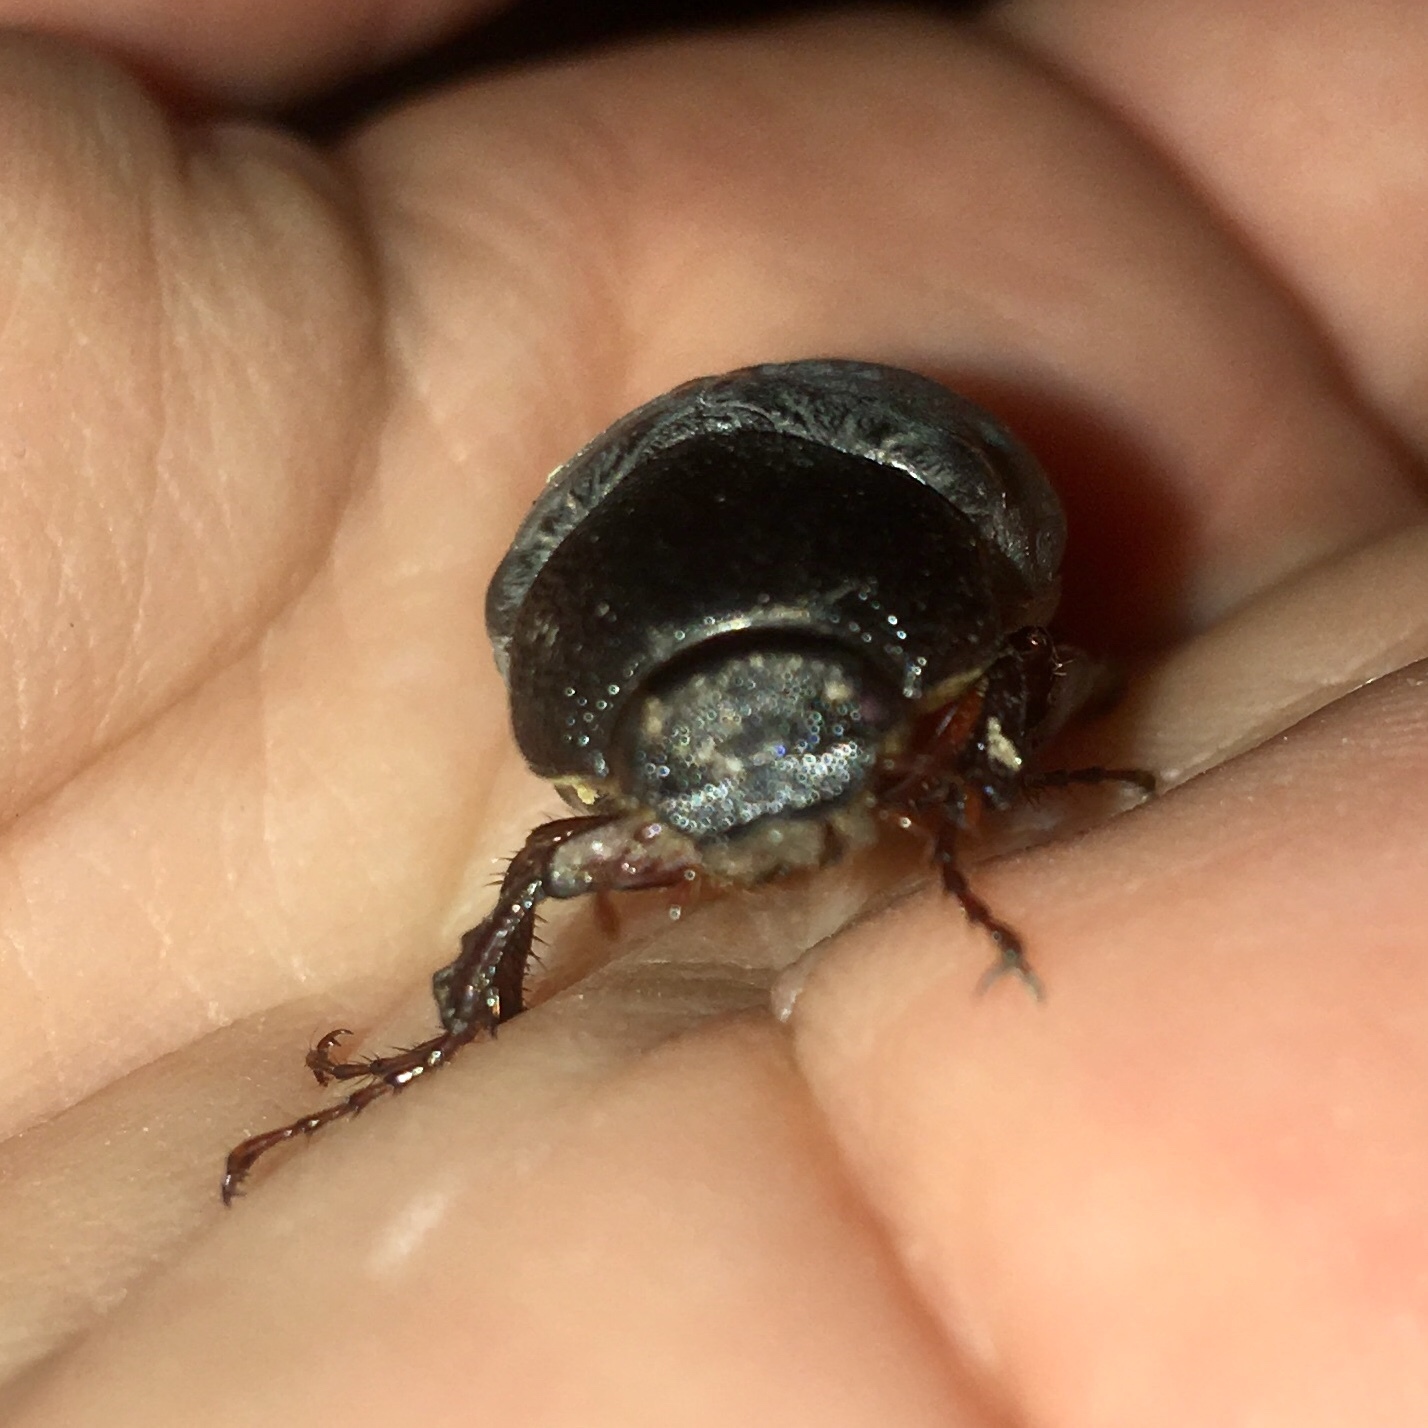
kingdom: Animalia
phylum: Arthropoda
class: Insecta
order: Coleoptera
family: Scarabaeidae
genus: Phyllophaga
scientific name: Phyllophaga prunina
